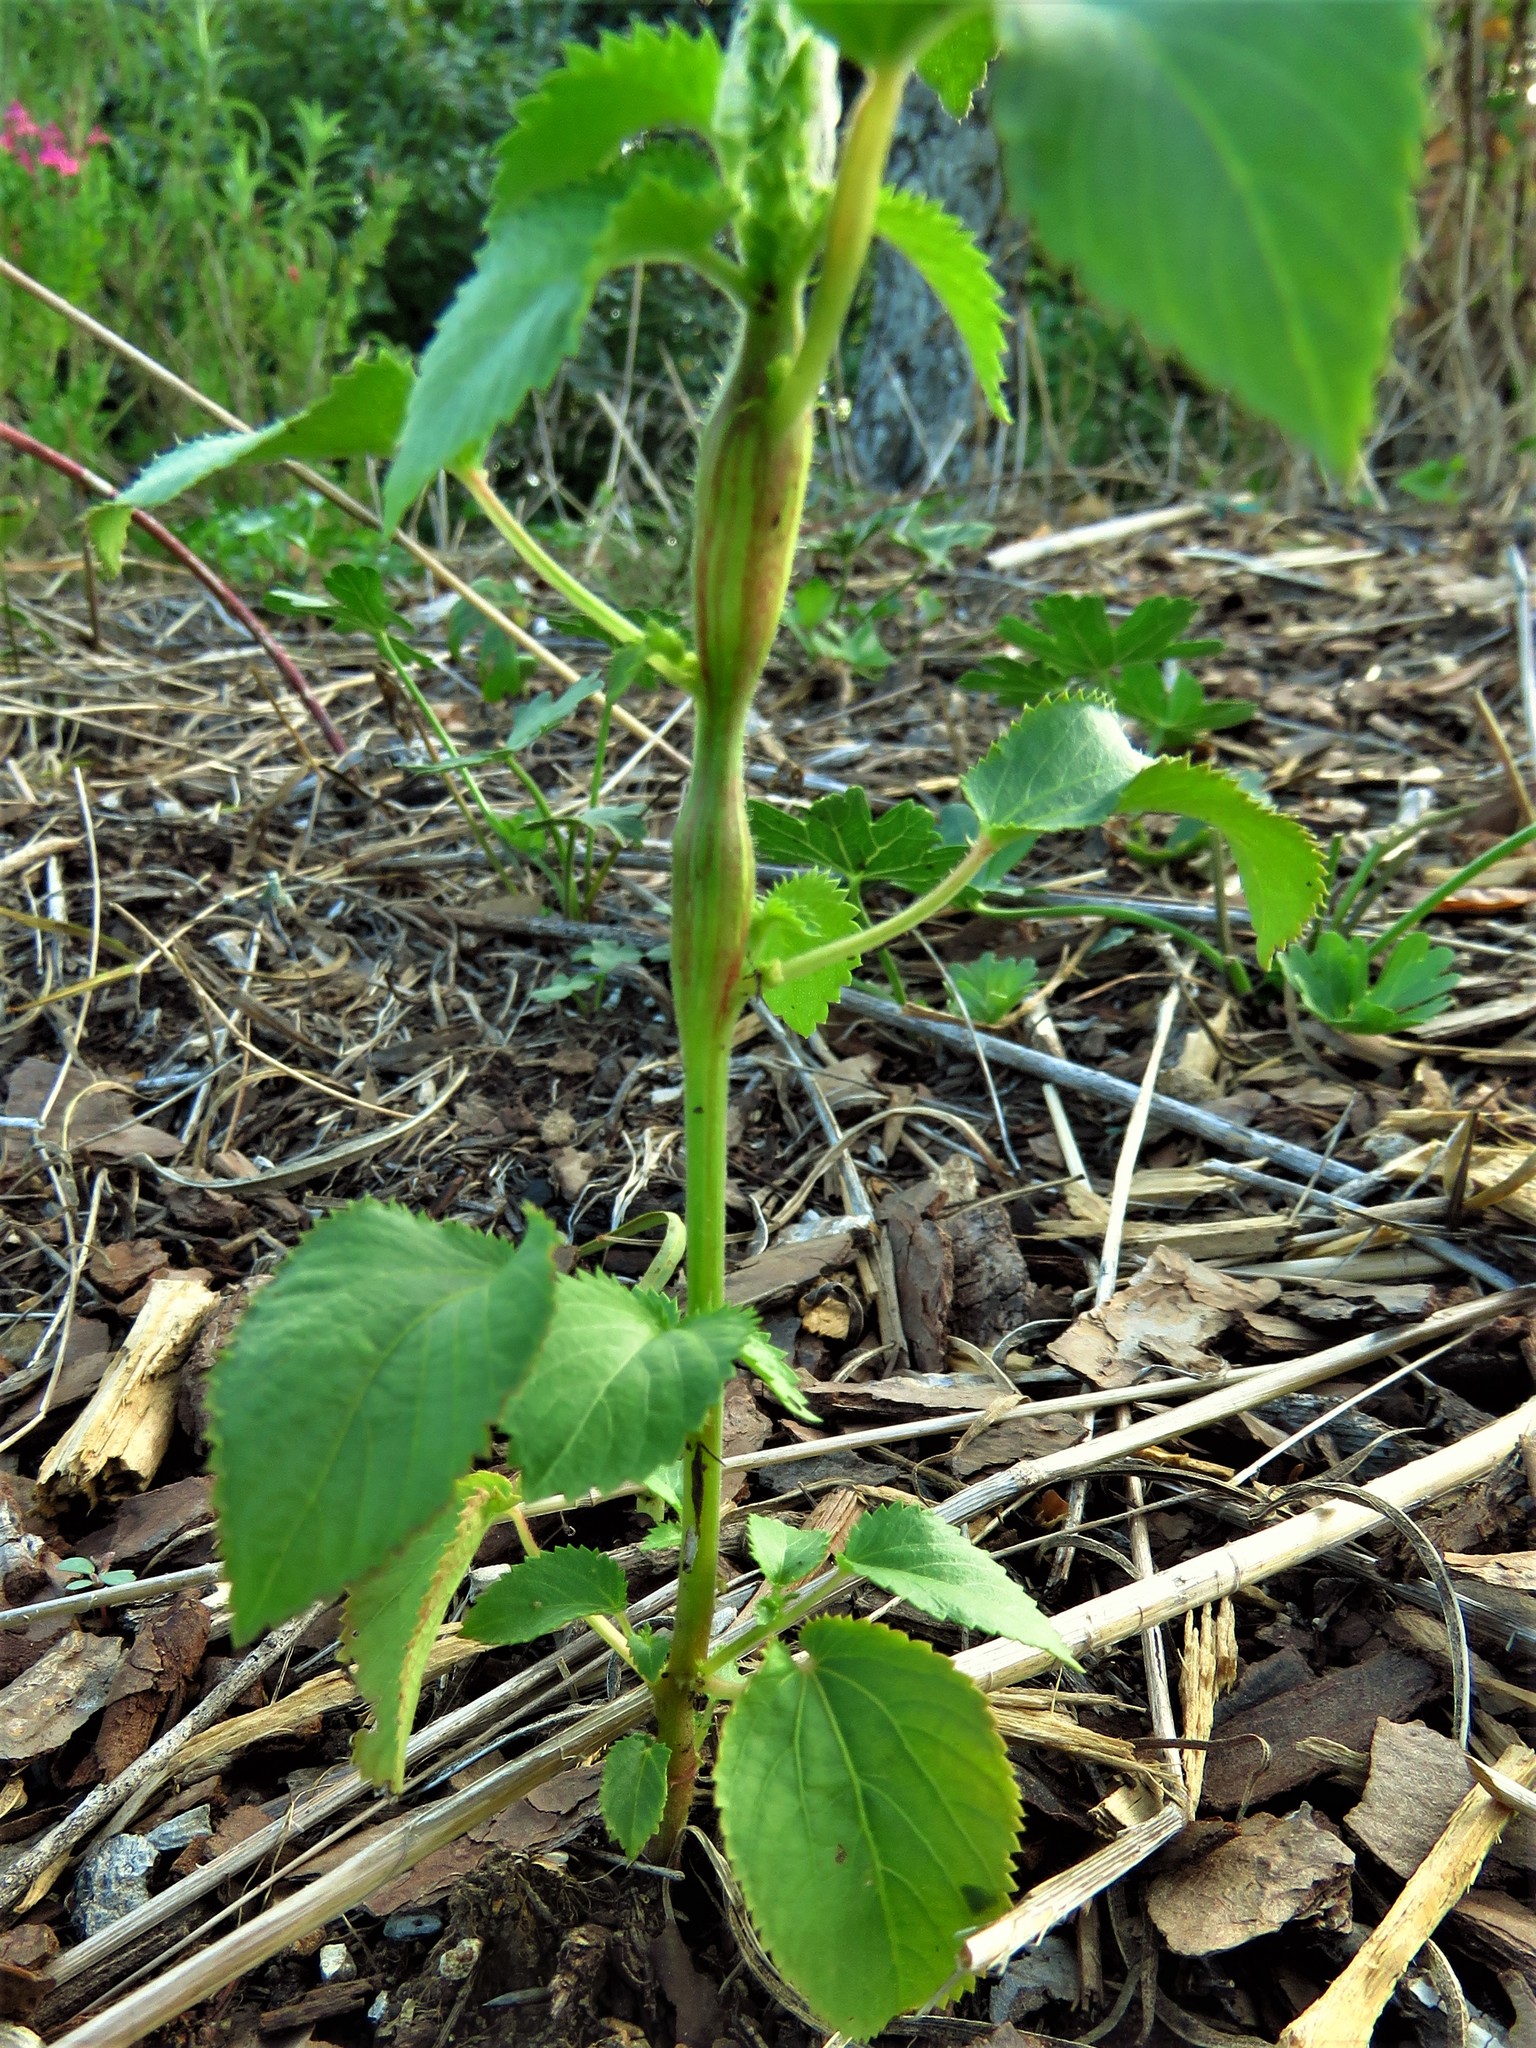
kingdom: Plantae
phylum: Tracheophyta
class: Magnoliopsida
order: Malpighiales
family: Euphorbiaceae
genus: Acalypha
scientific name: Acalypha ostryifolia
